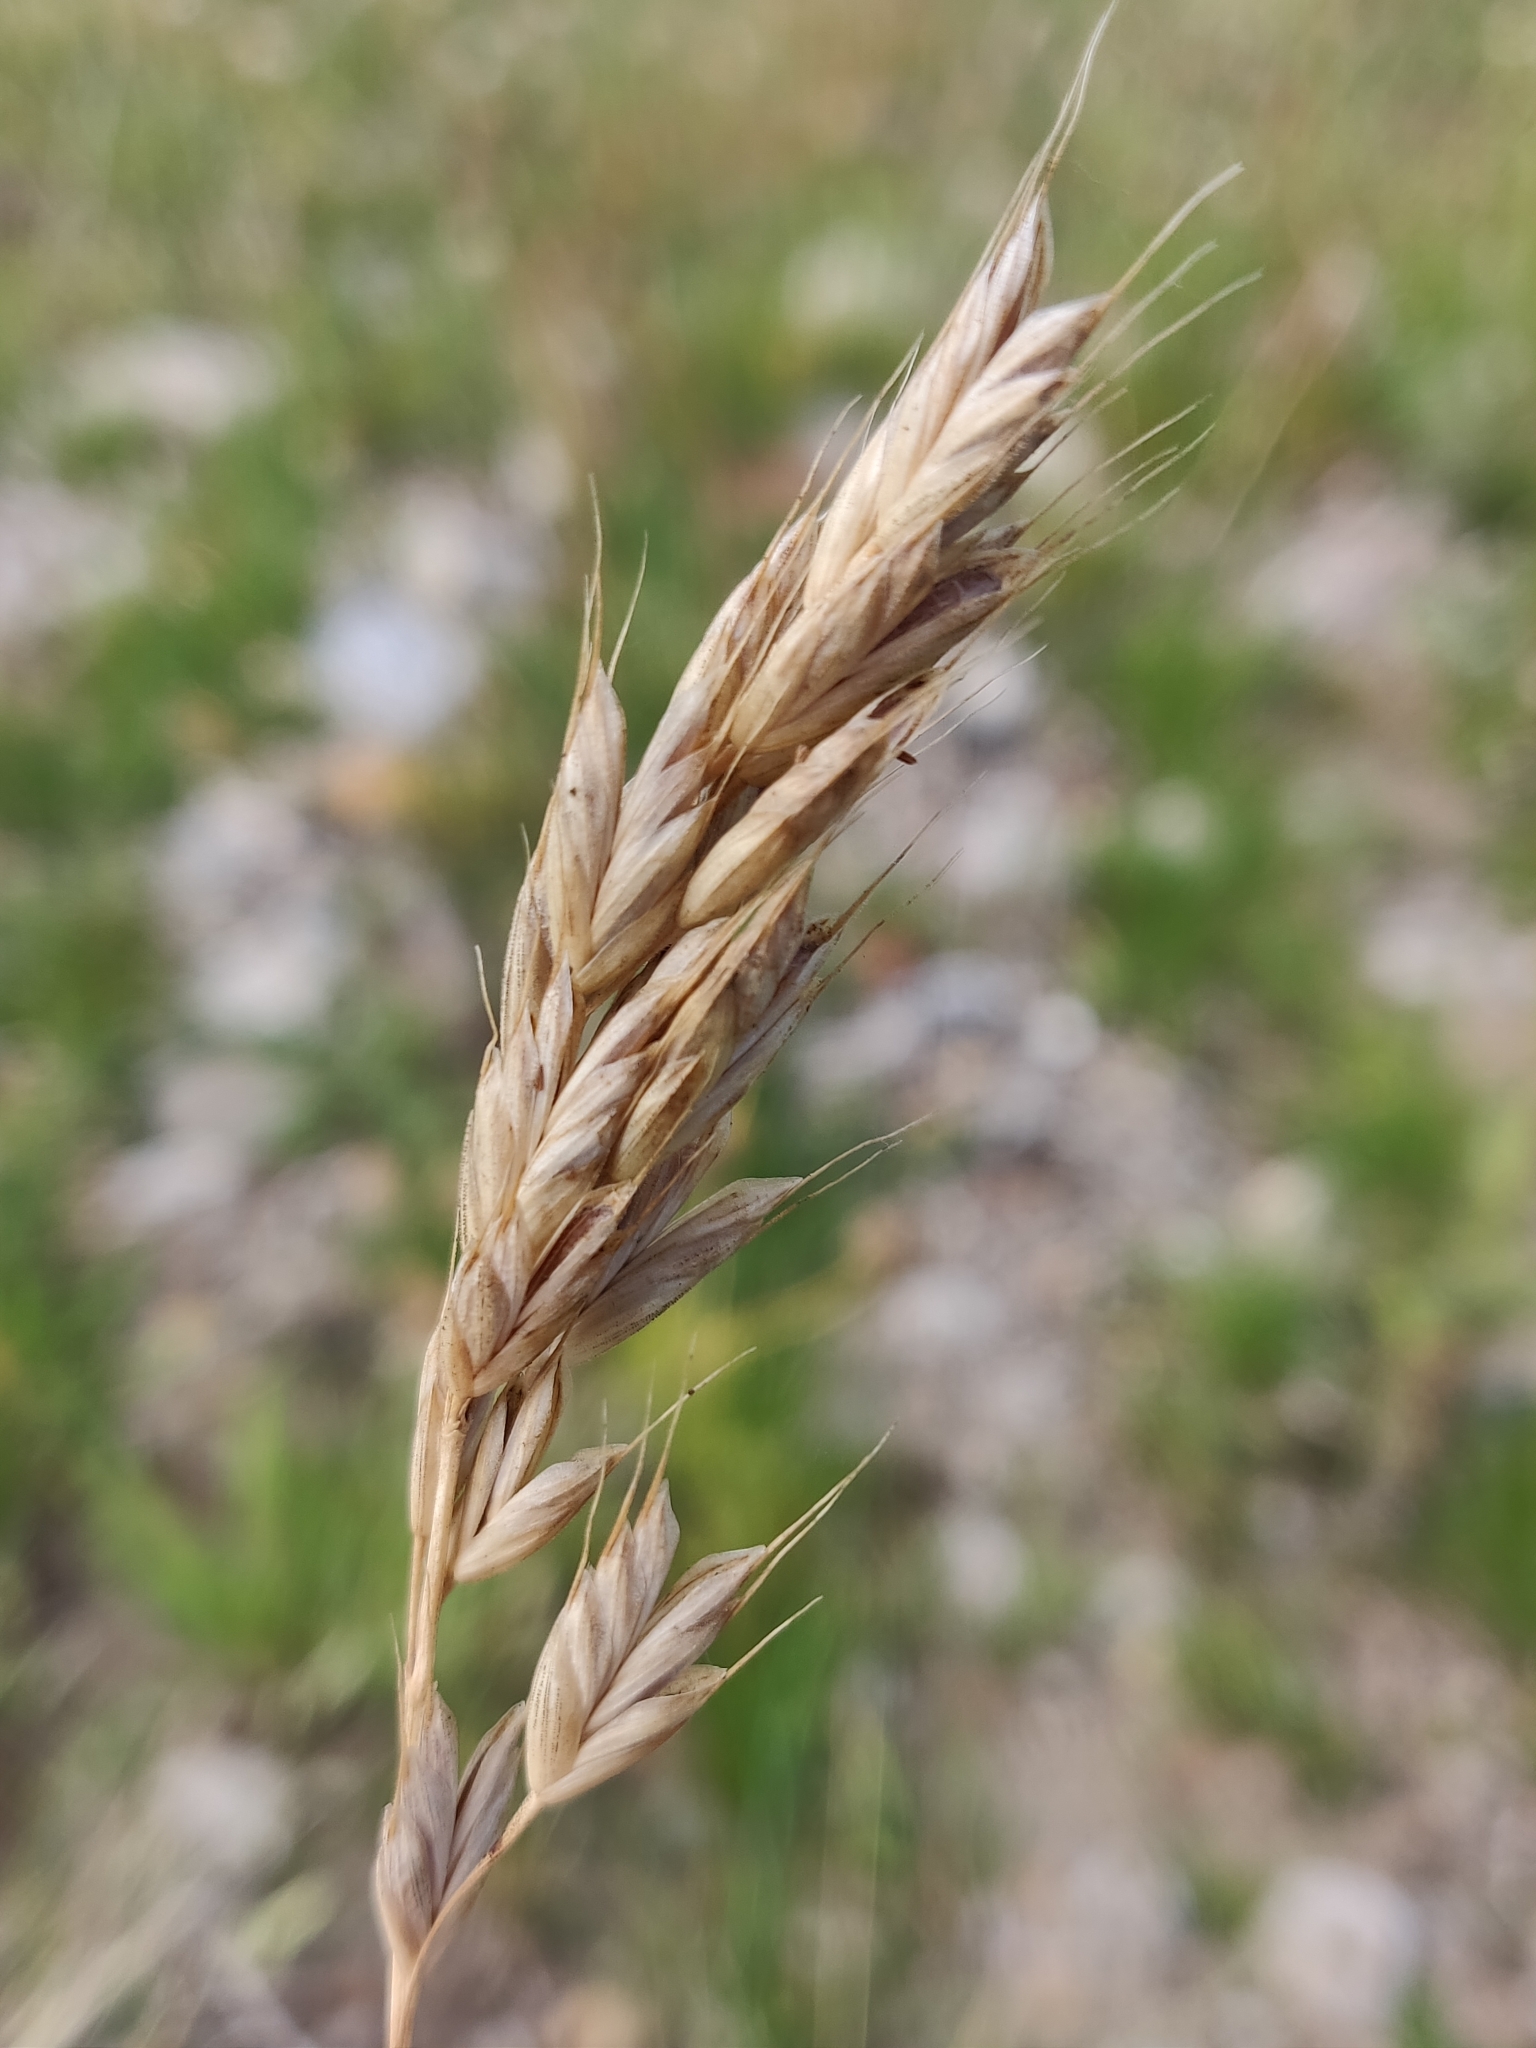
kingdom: Plantae
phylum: Tracheophyta
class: Liliopsida
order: Poales
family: Poaceae
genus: Bromus
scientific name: Bromus hordeaceus
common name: Soft brome
